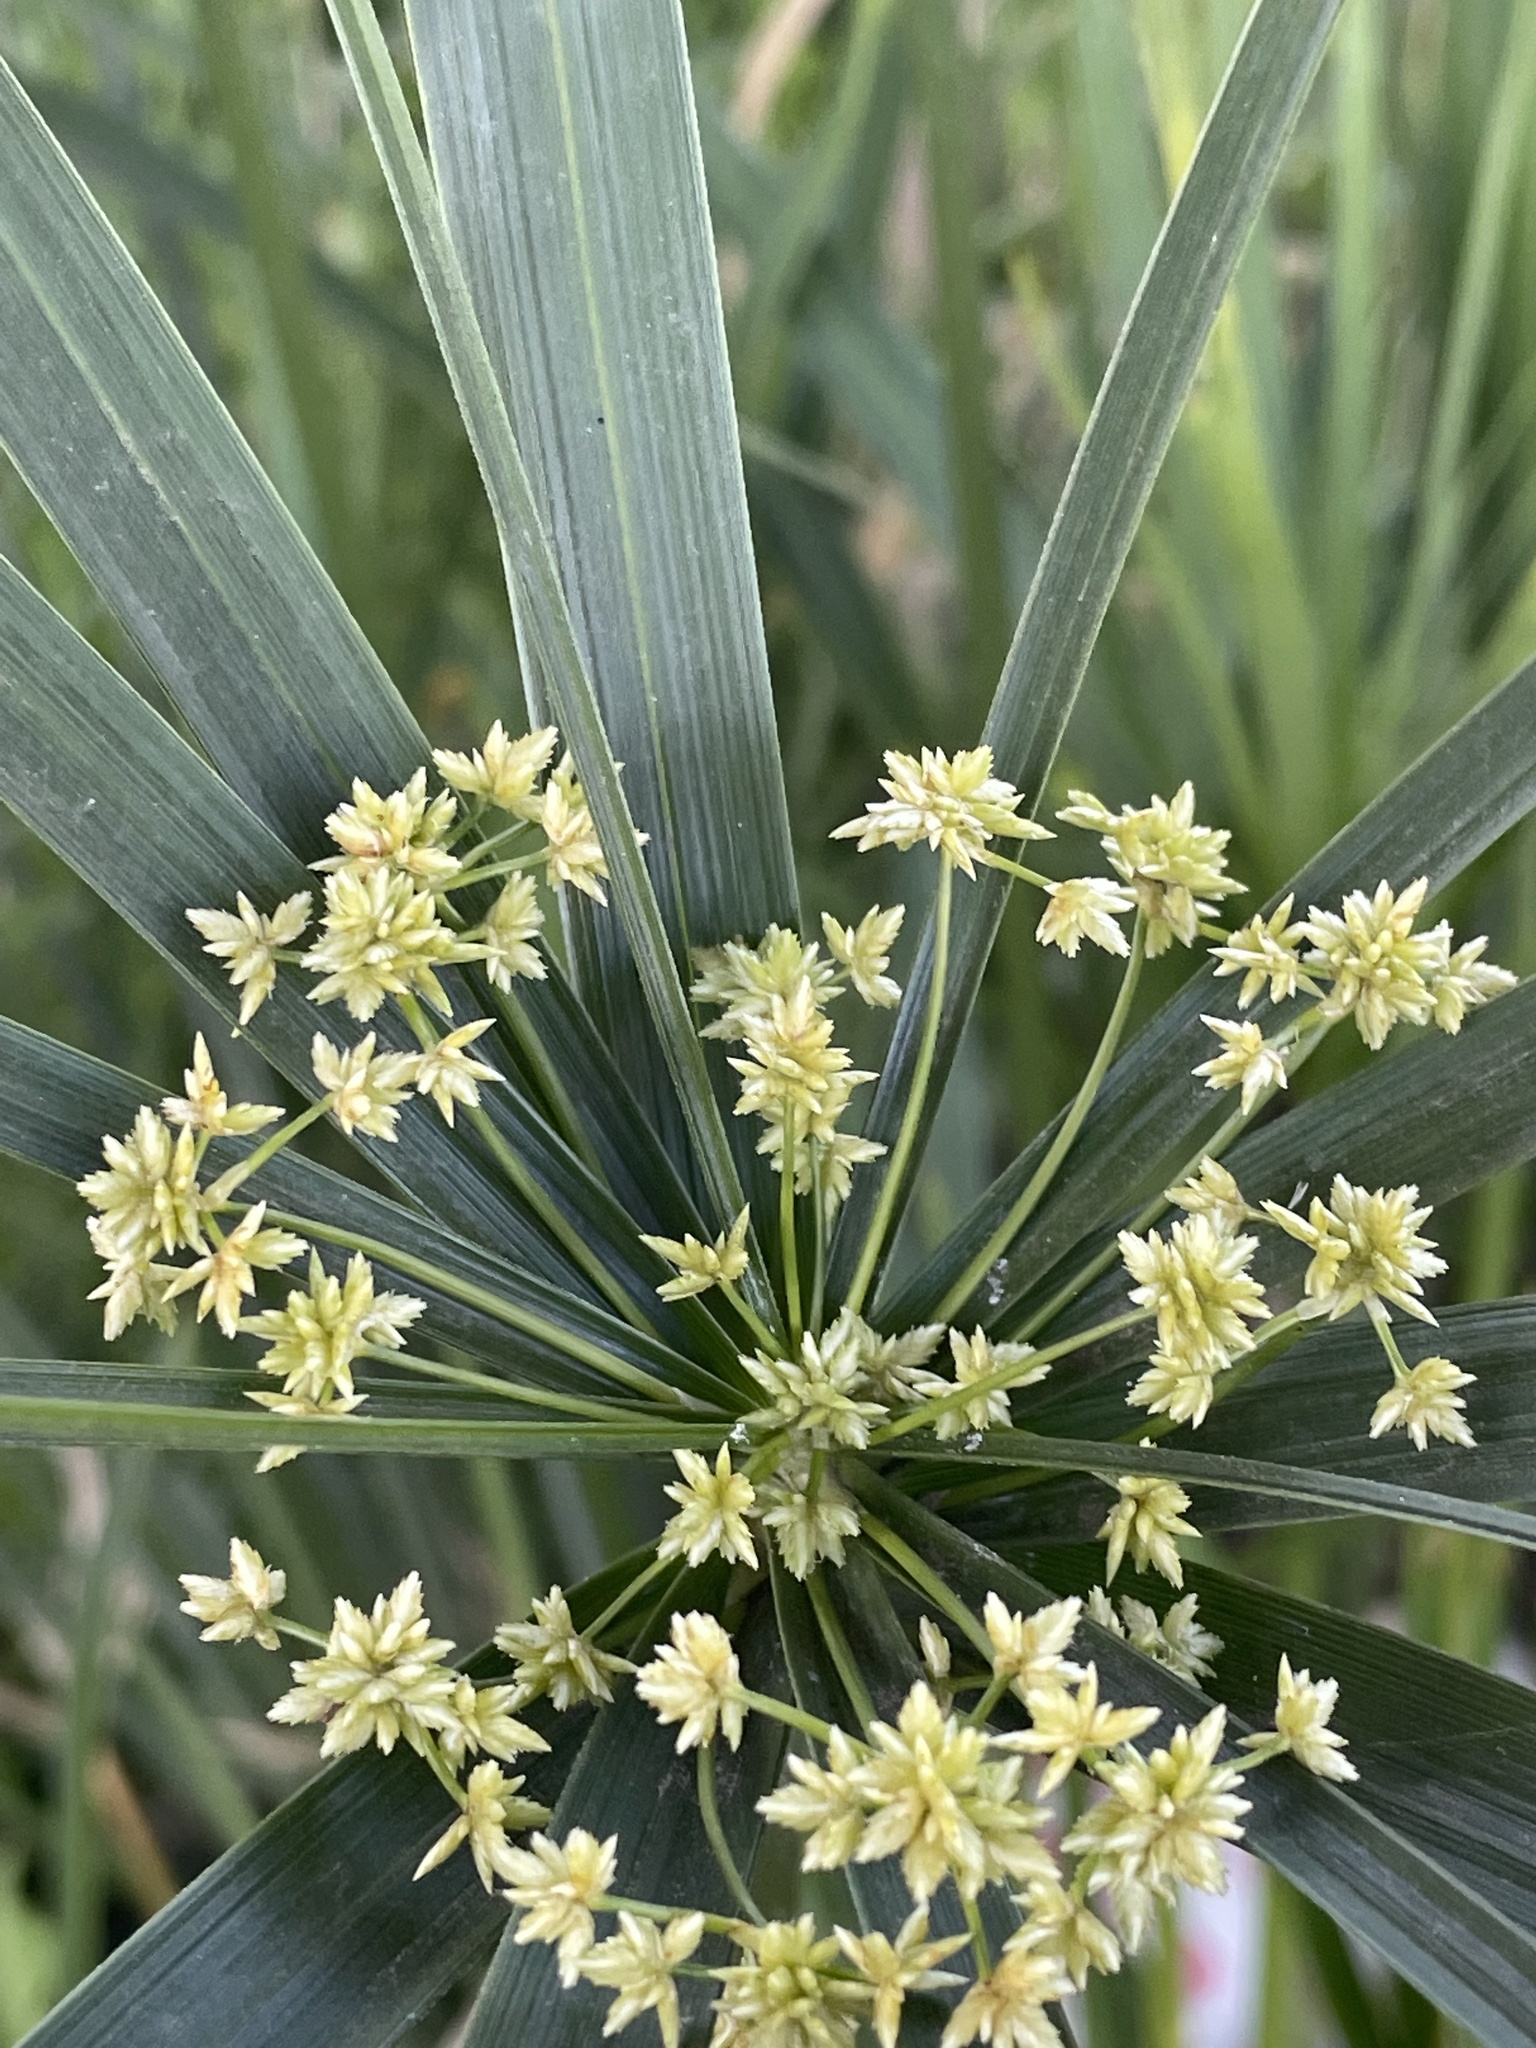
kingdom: Plantae
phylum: Tracheophyta
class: Liliopsida
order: Poales
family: Cyperaceae
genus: Cyperus
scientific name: Cyperus alternifolius
